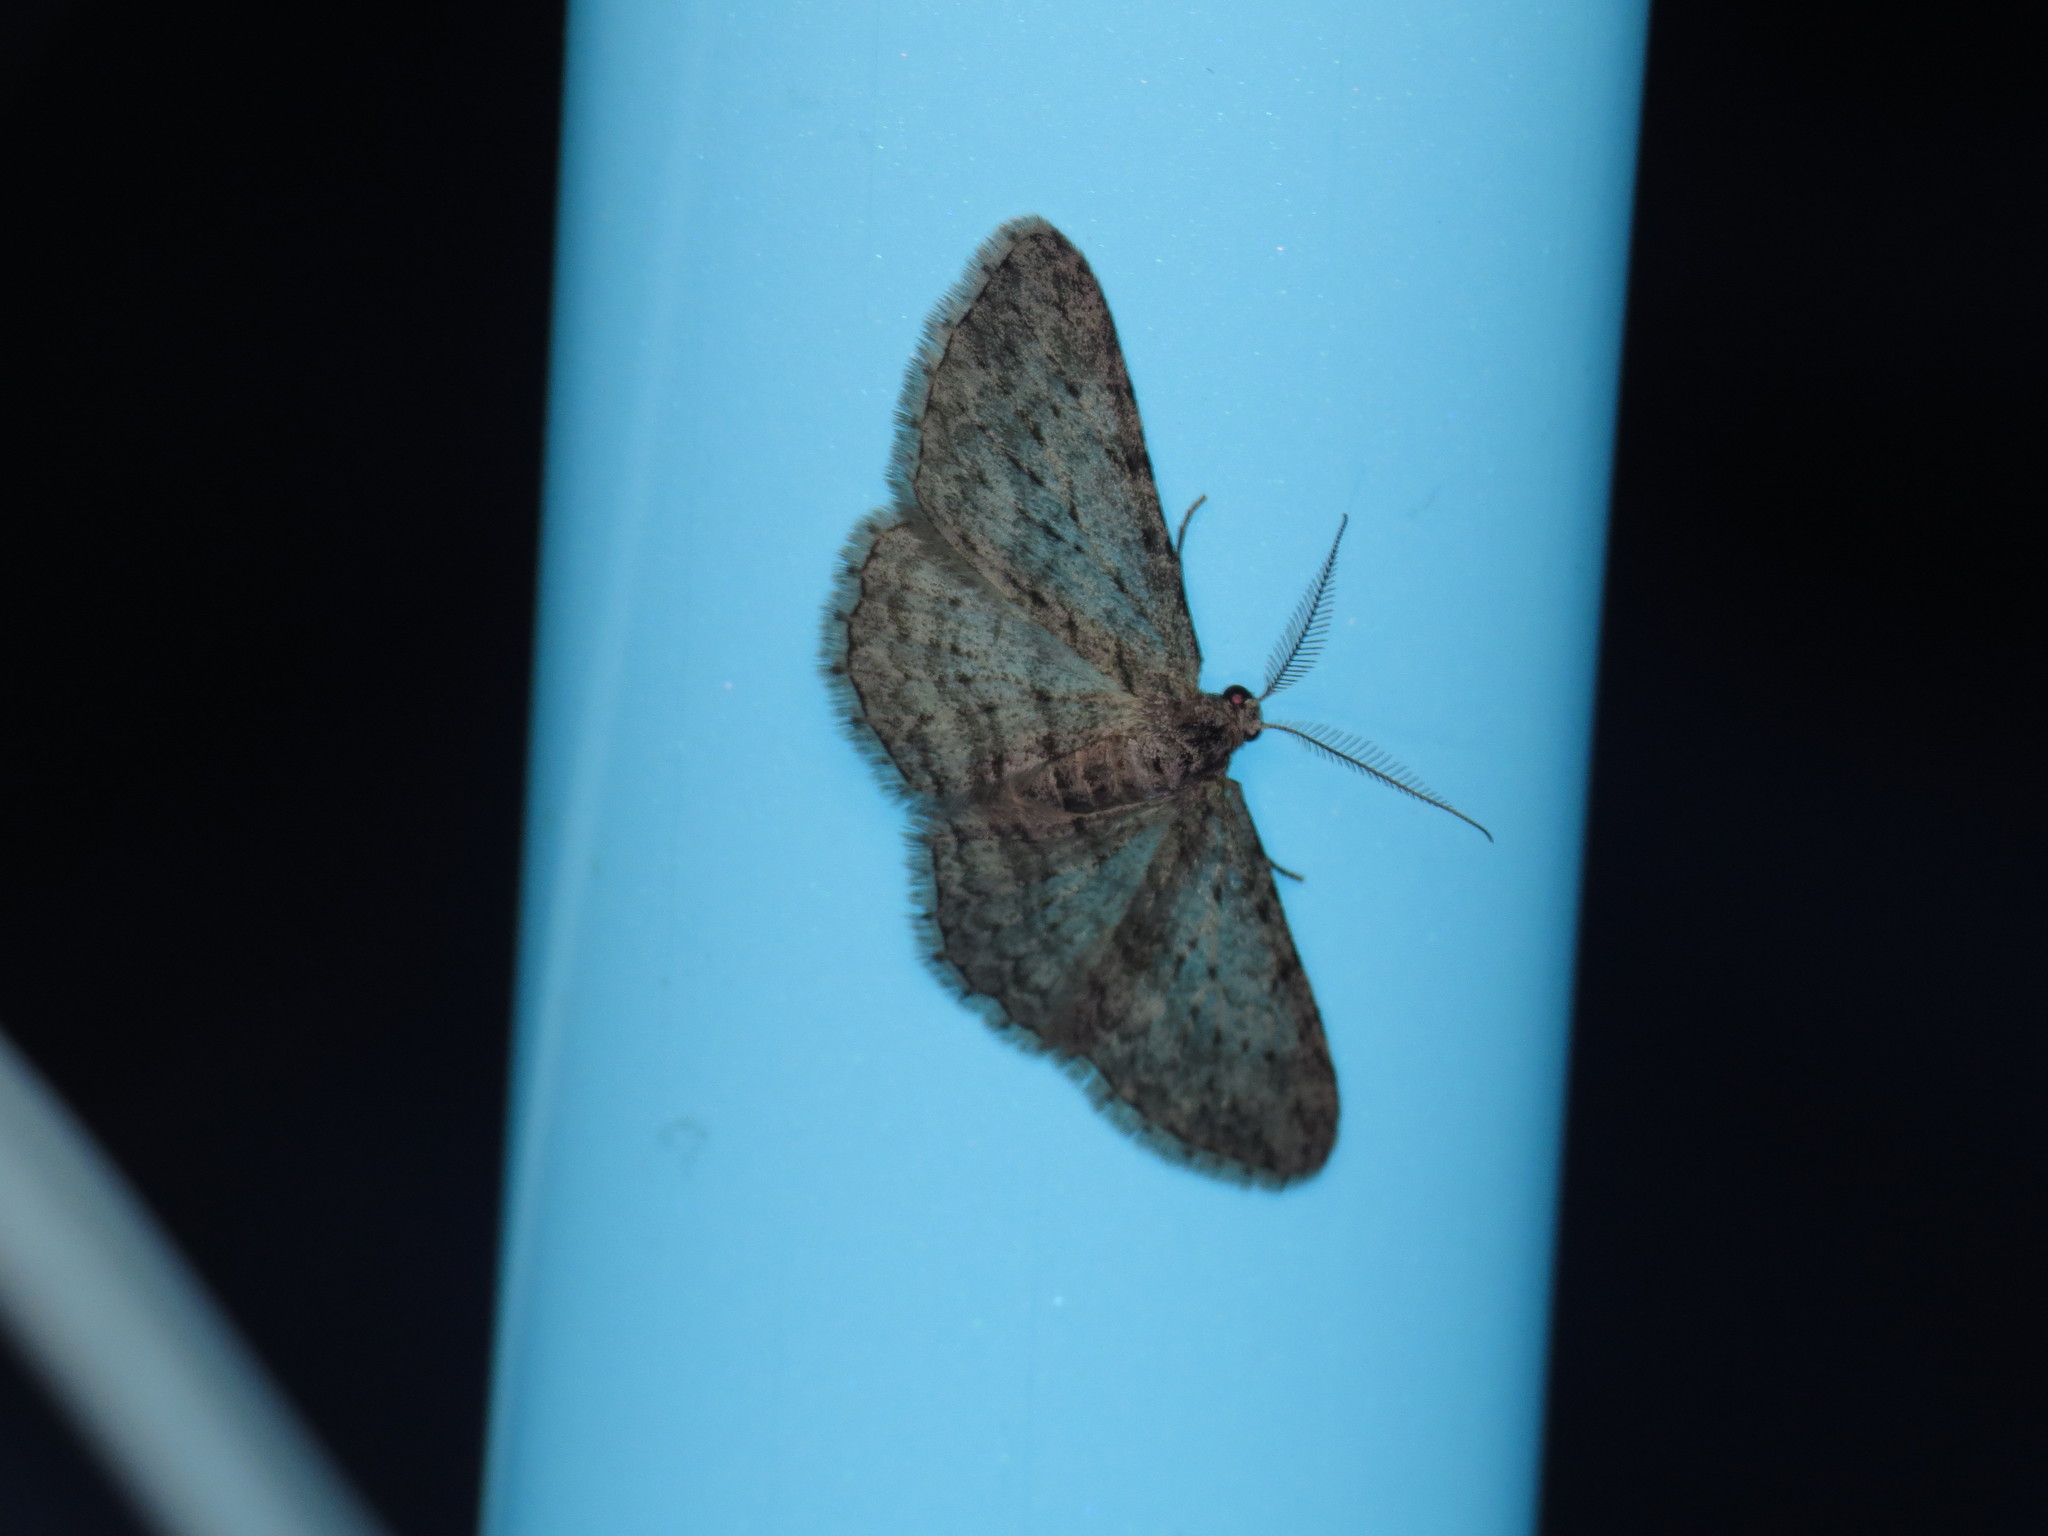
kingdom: Animalia
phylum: Arthropoda
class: Insecta
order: Lepidoptera
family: Geometridae
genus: Phelotis
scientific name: Phelotis cognata
